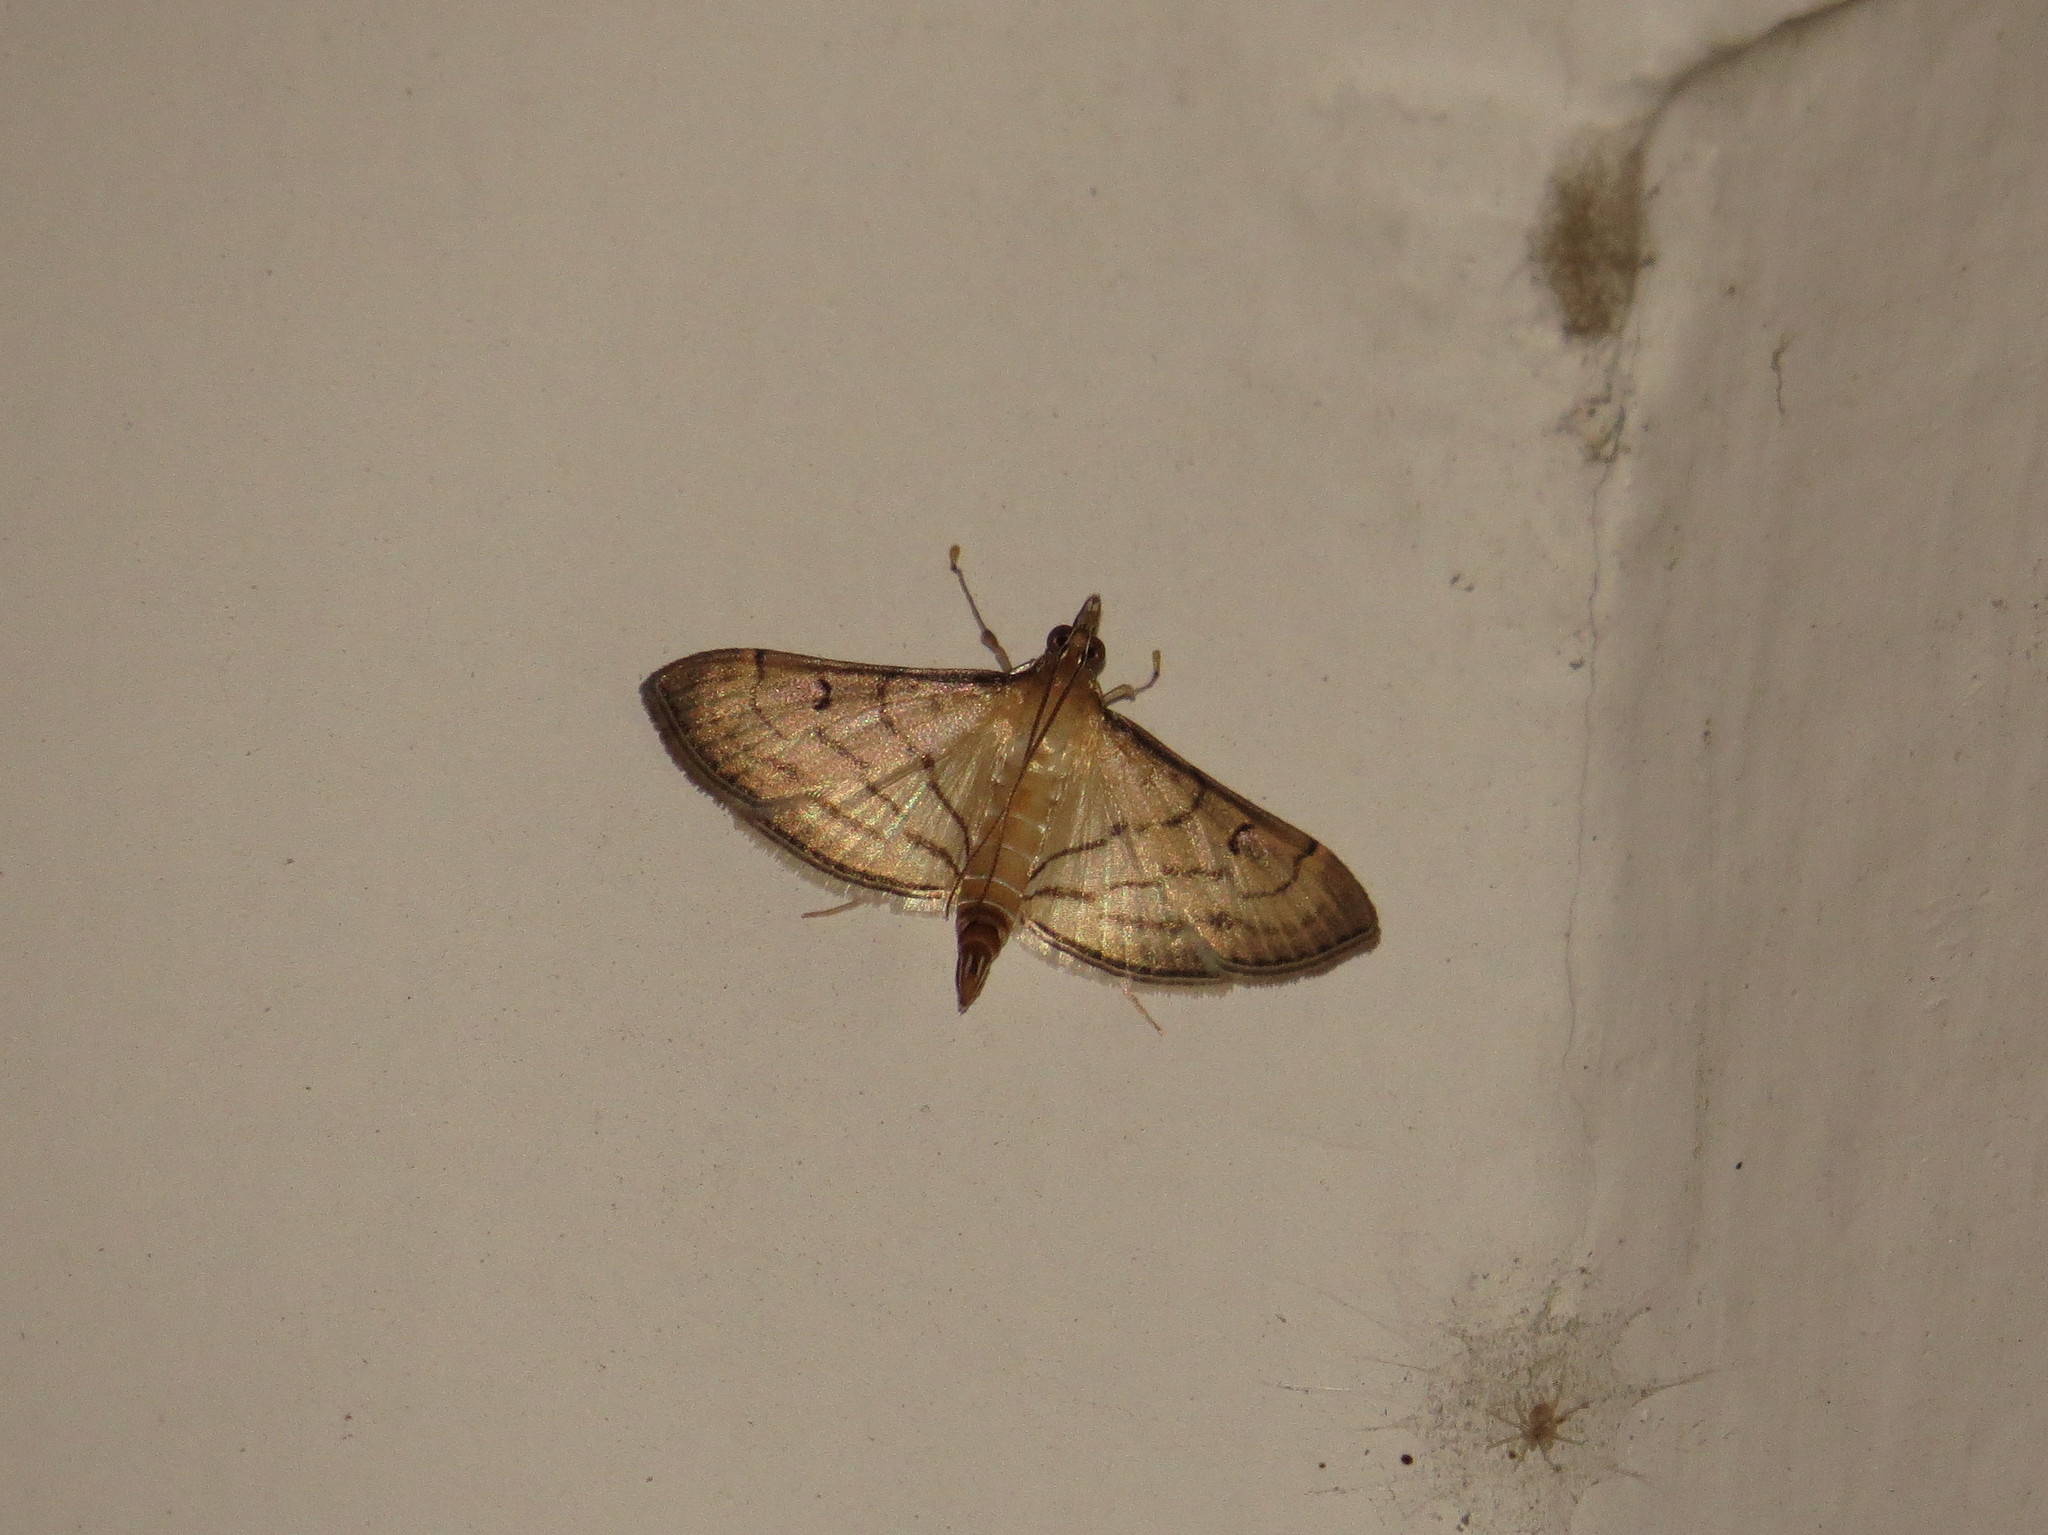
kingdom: Animalia
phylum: Arthropoda
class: Insecta
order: Lepidoptera
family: Crambidae
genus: Cnaphalocrocis
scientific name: Cnaphalocrocis Marasmia trapezalis
